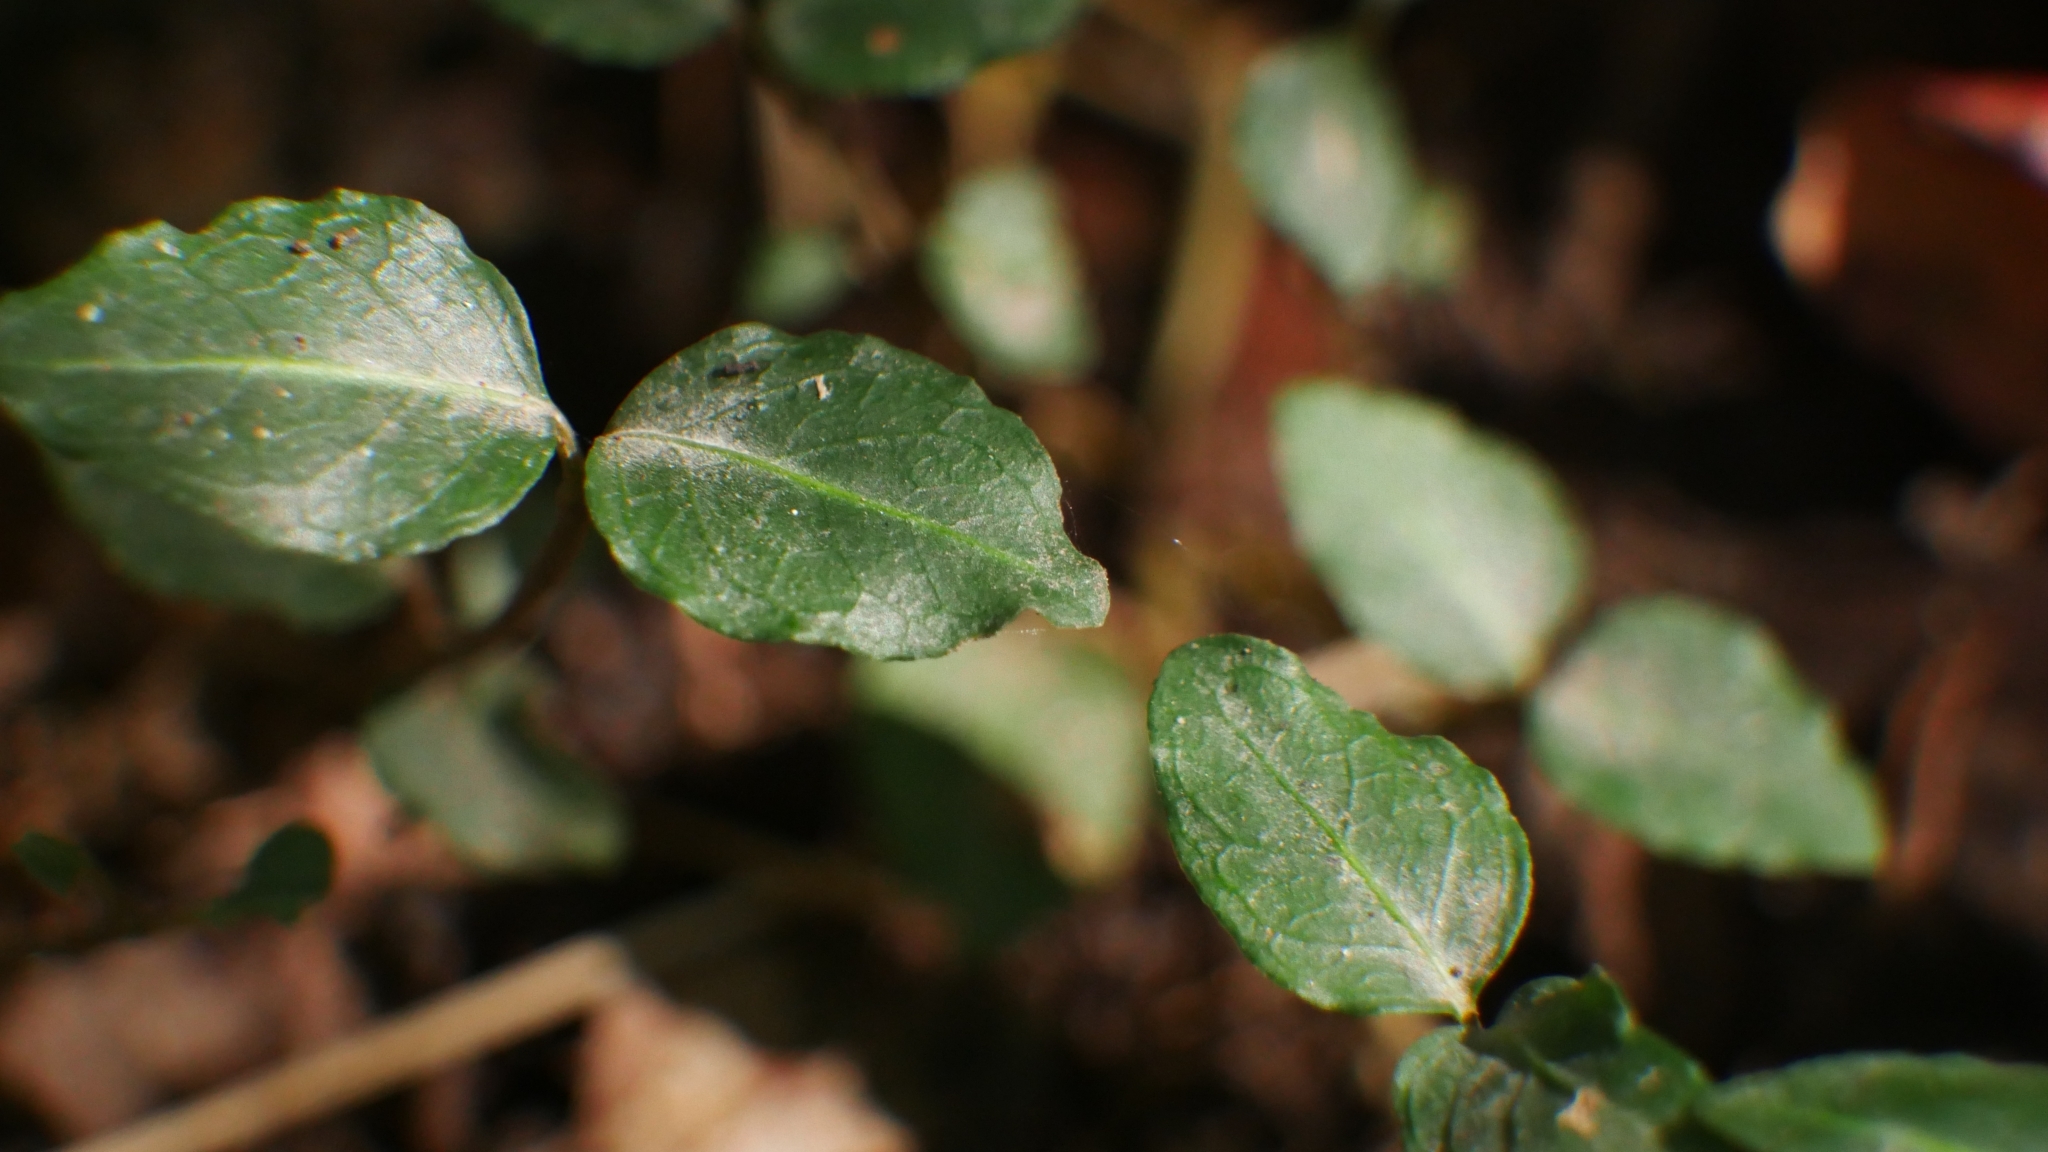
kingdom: Plantae
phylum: Tracheophyta
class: Magnoliopsida
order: Gentianales
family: Rubiaceae
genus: Mitchella
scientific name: Mitchella repens
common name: Partridge-berry
